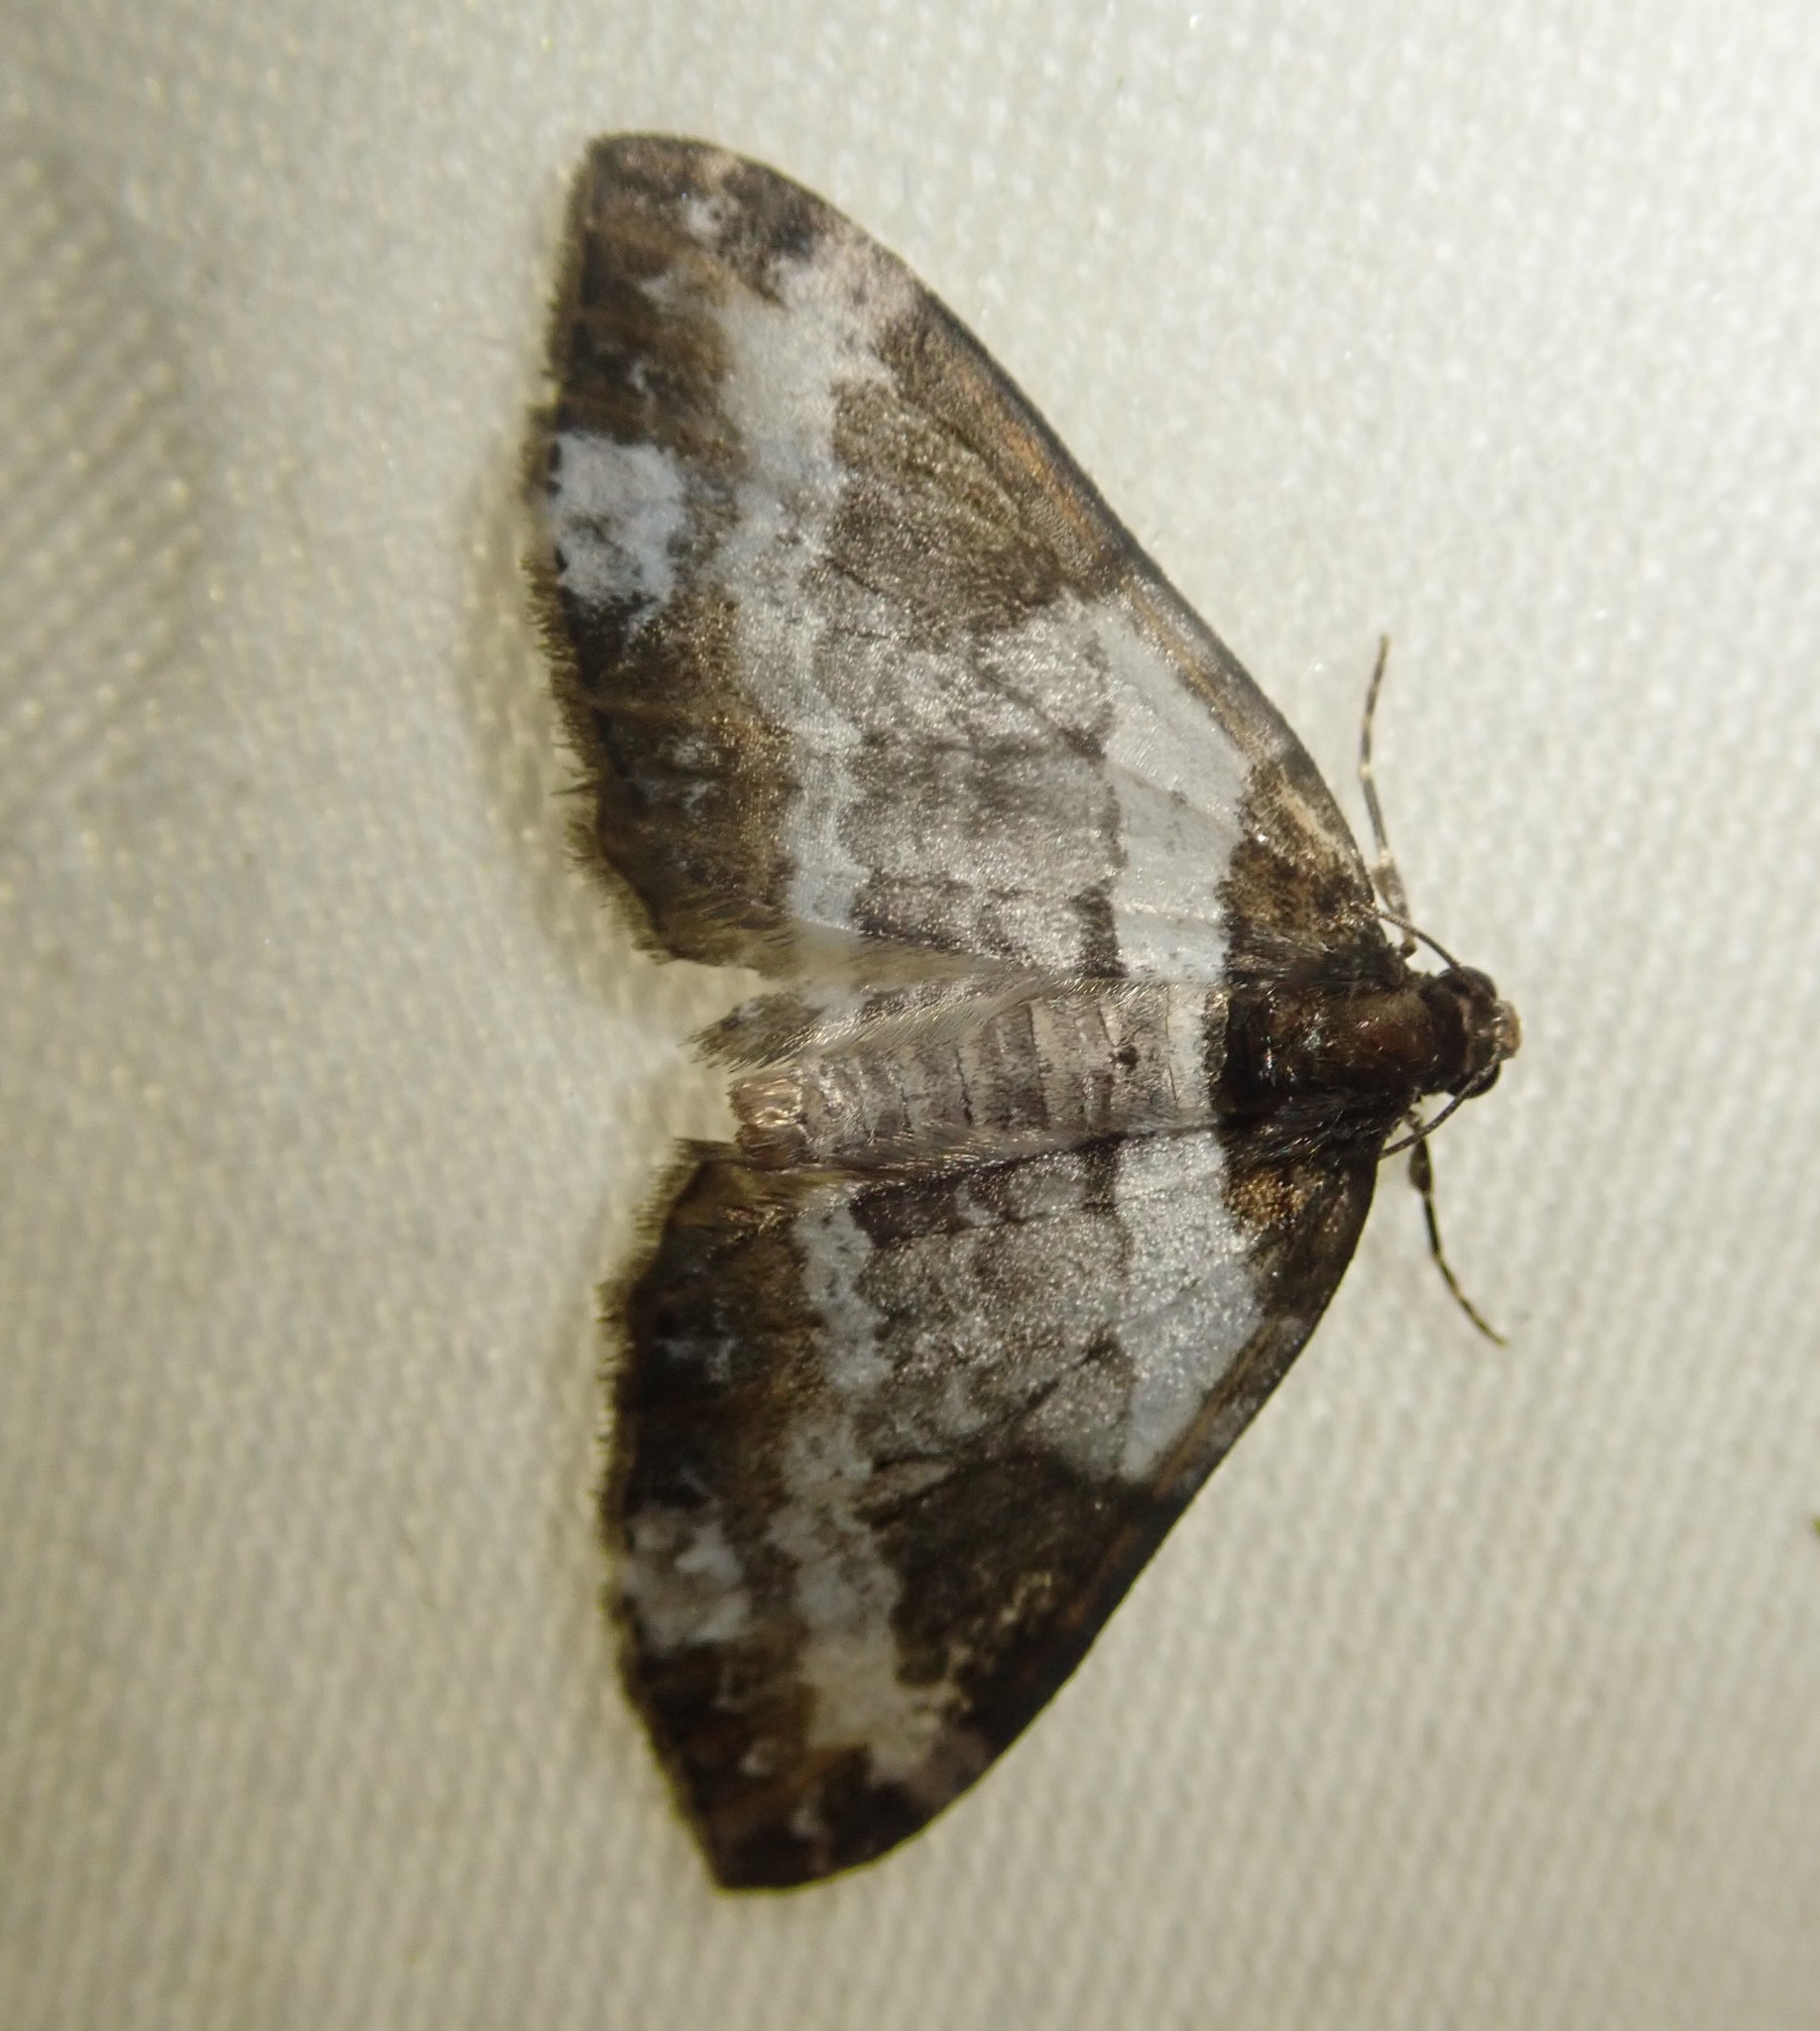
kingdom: Animalia
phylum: Arthropoda
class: Insecta
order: Lepidoptera
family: Geometridae
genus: Melanthia
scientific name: Melanthia procellata
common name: Pretty chalk carpet
